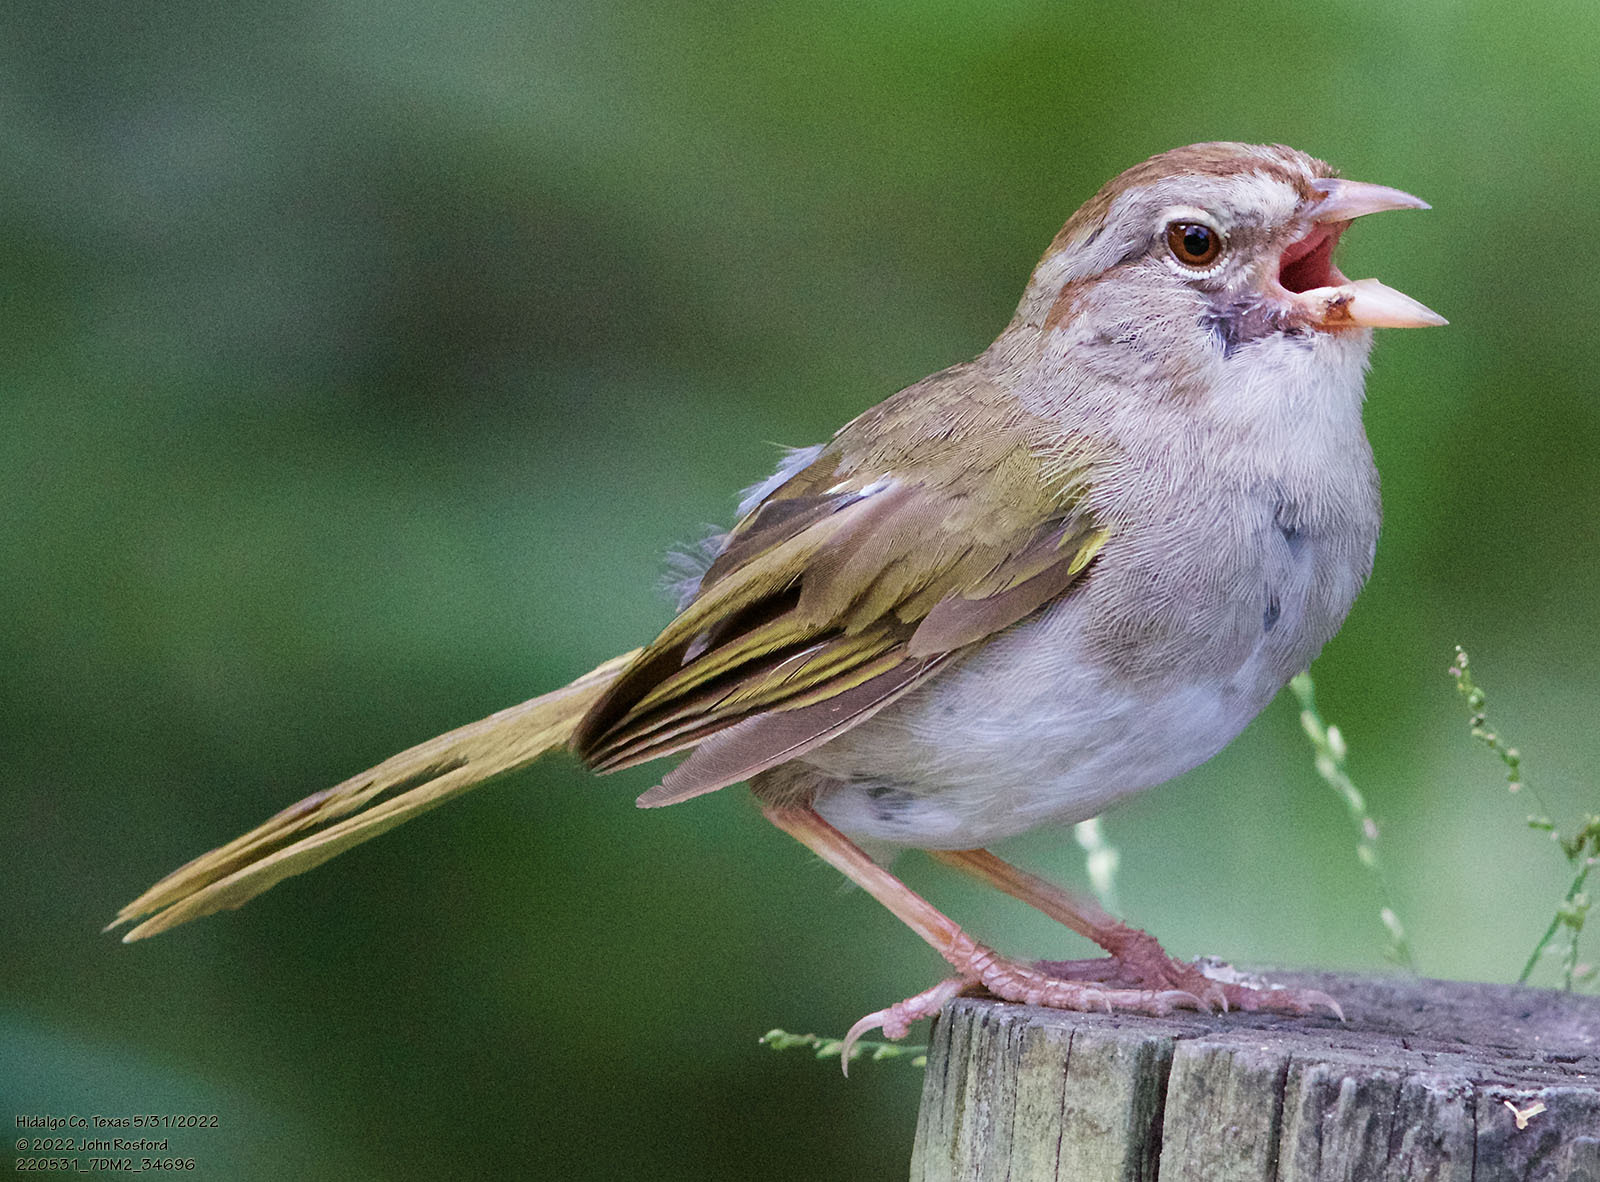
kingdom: Animalia
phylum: Chordata
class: Aves
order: Passeriformes
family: Passerellidae
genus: Arremonops
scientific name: Arremonops rufivirgatus
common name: Olive sparrow
